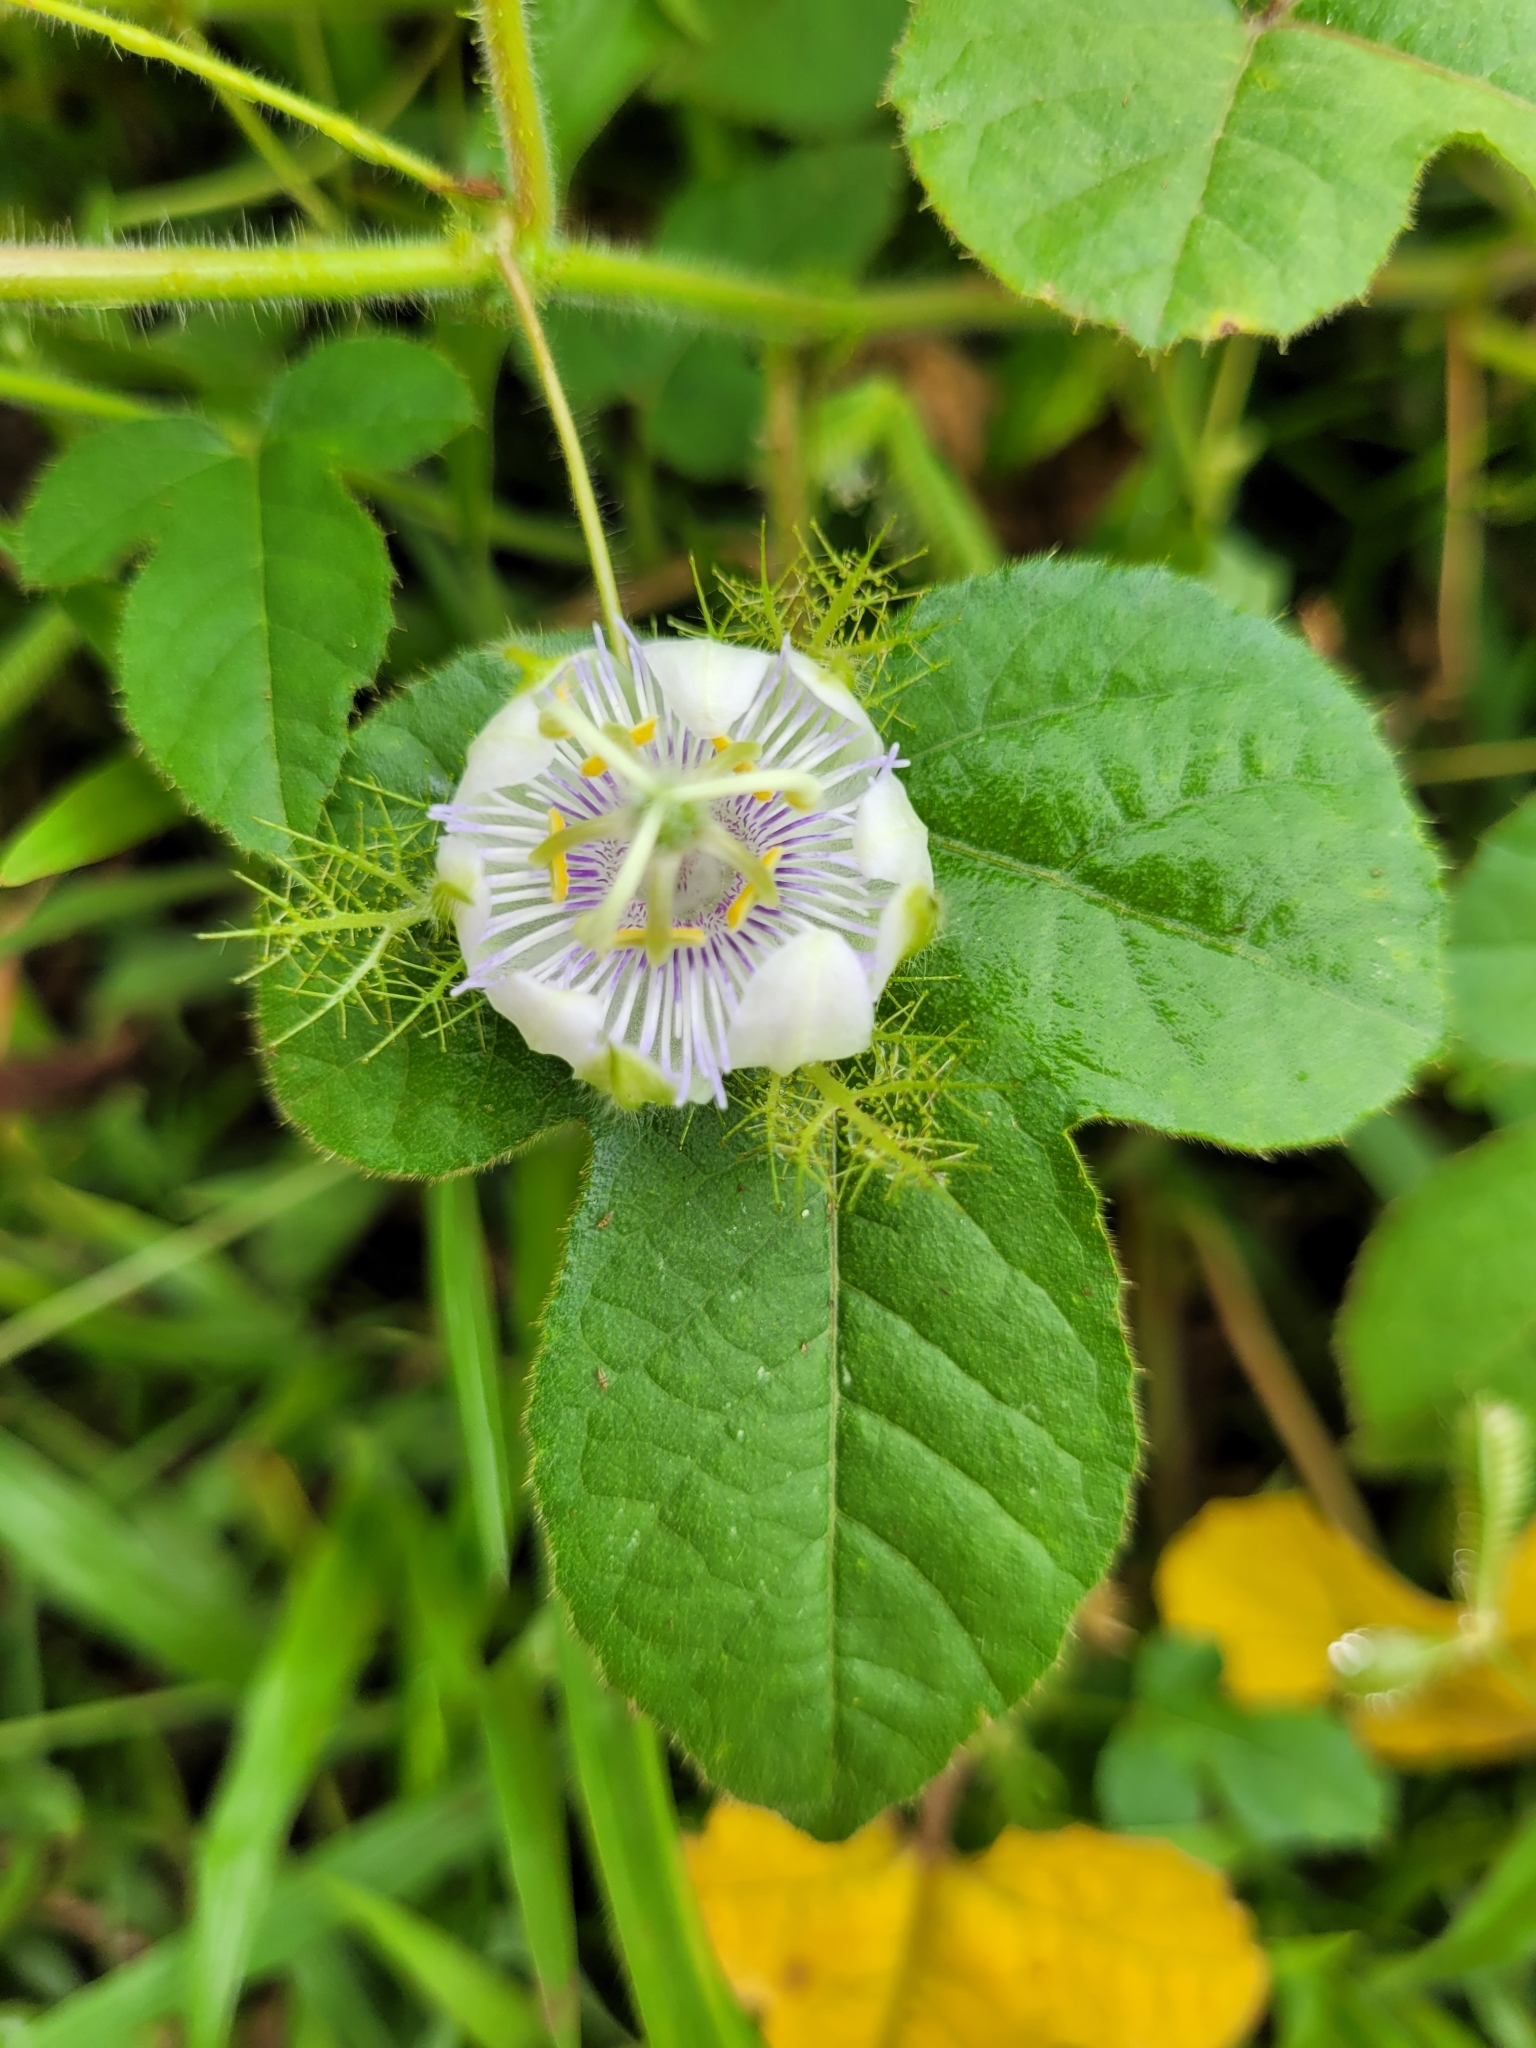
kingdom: Plantae
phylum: Tracheophyta
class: Magnoliopsida
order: Malpighiales
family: Passifloraceae
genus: Passiflora
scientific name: Passiflora foetida
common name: Fetid passionflower
